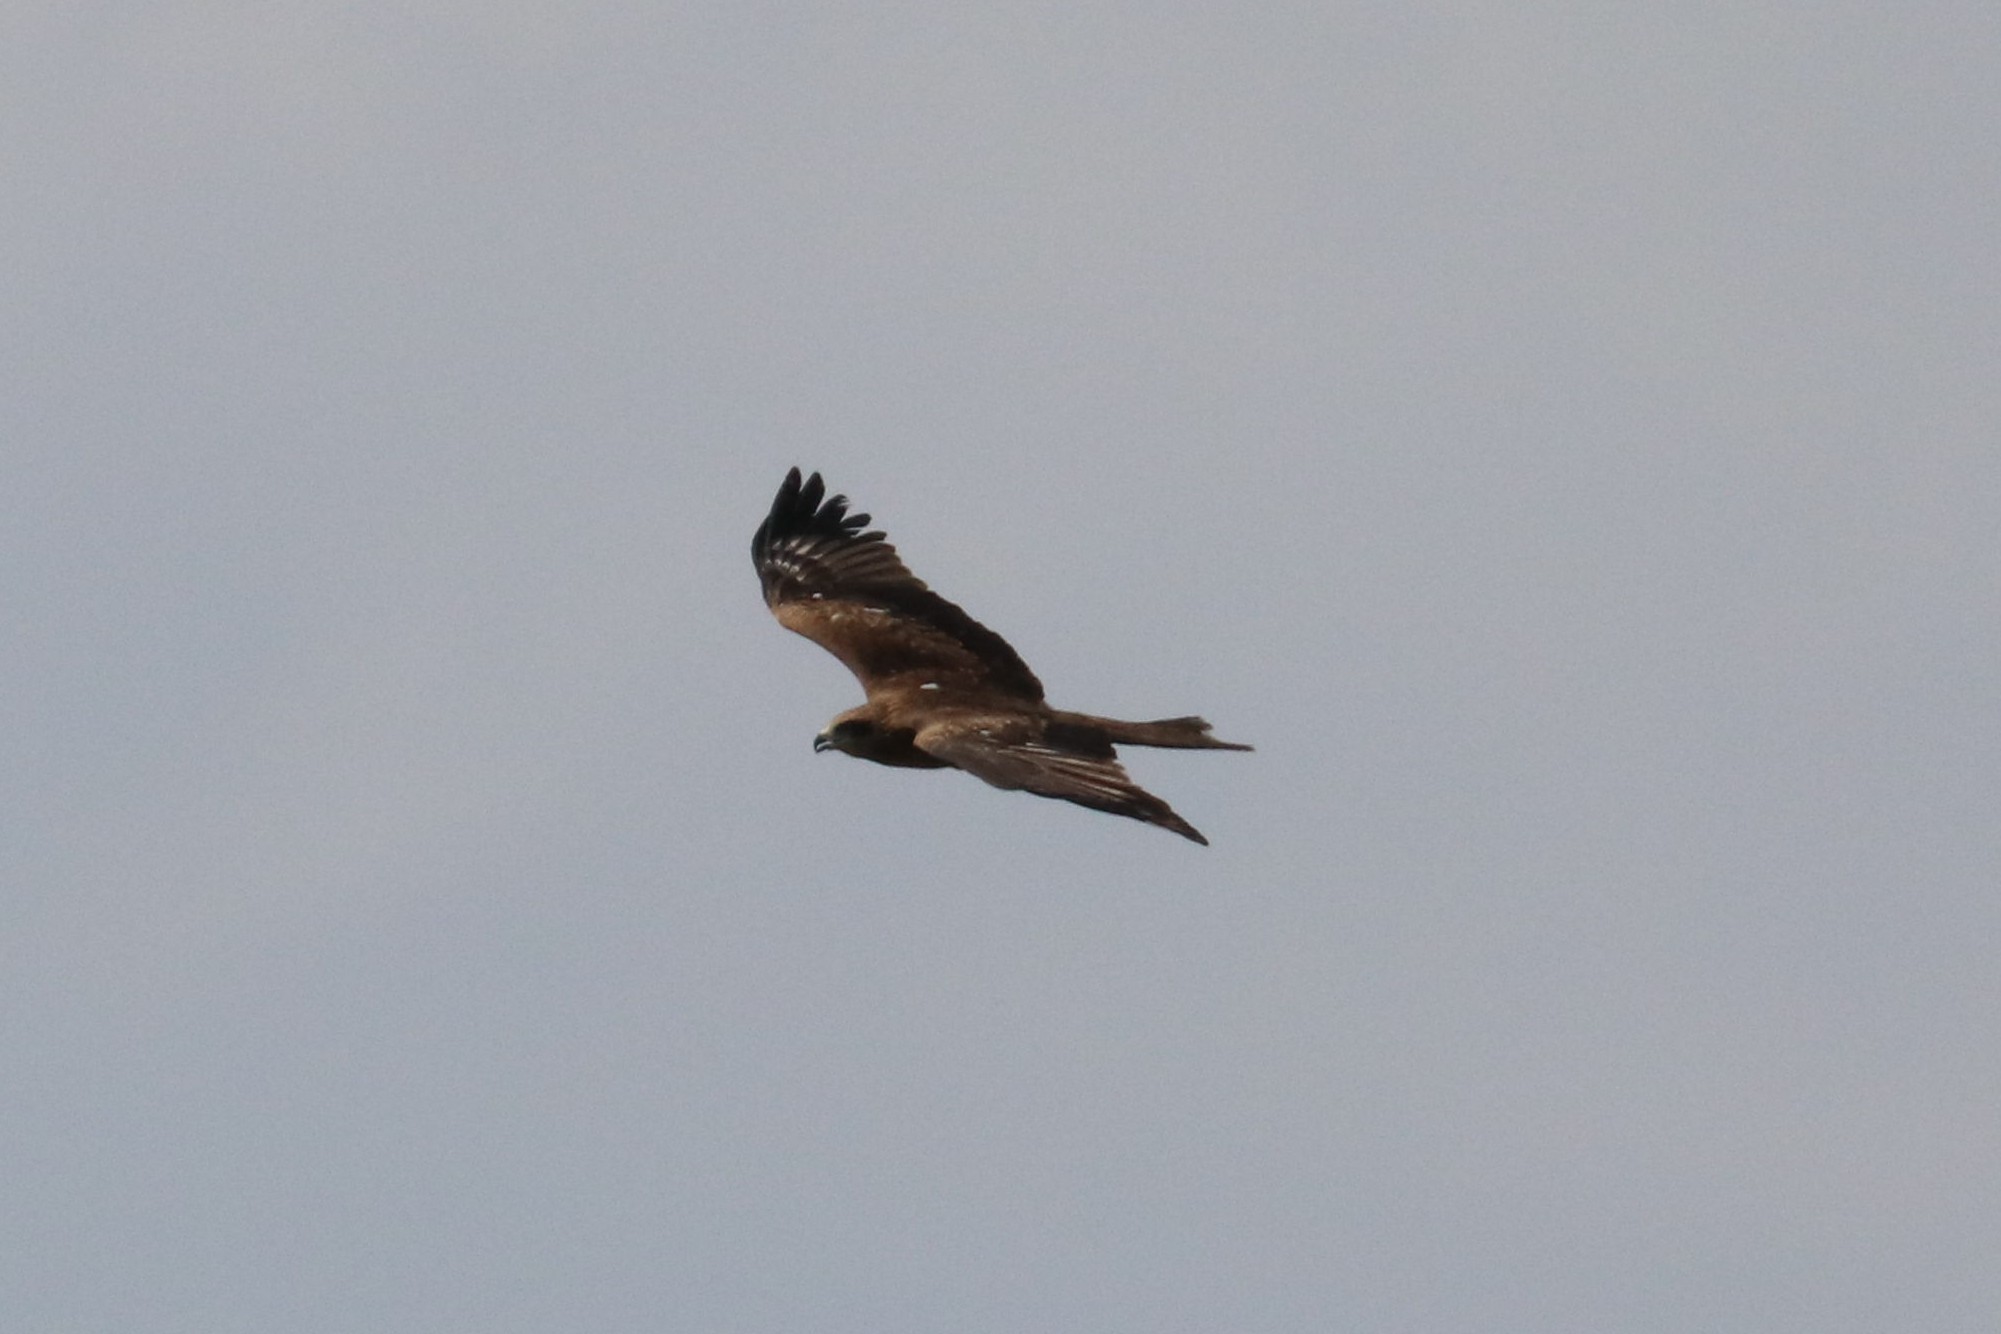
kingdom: Animalia
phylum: Chordata
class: Aves
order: Accipitriformes
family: Accipitridae
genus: Milvus
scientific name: Milvus migrans
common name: Black kite
